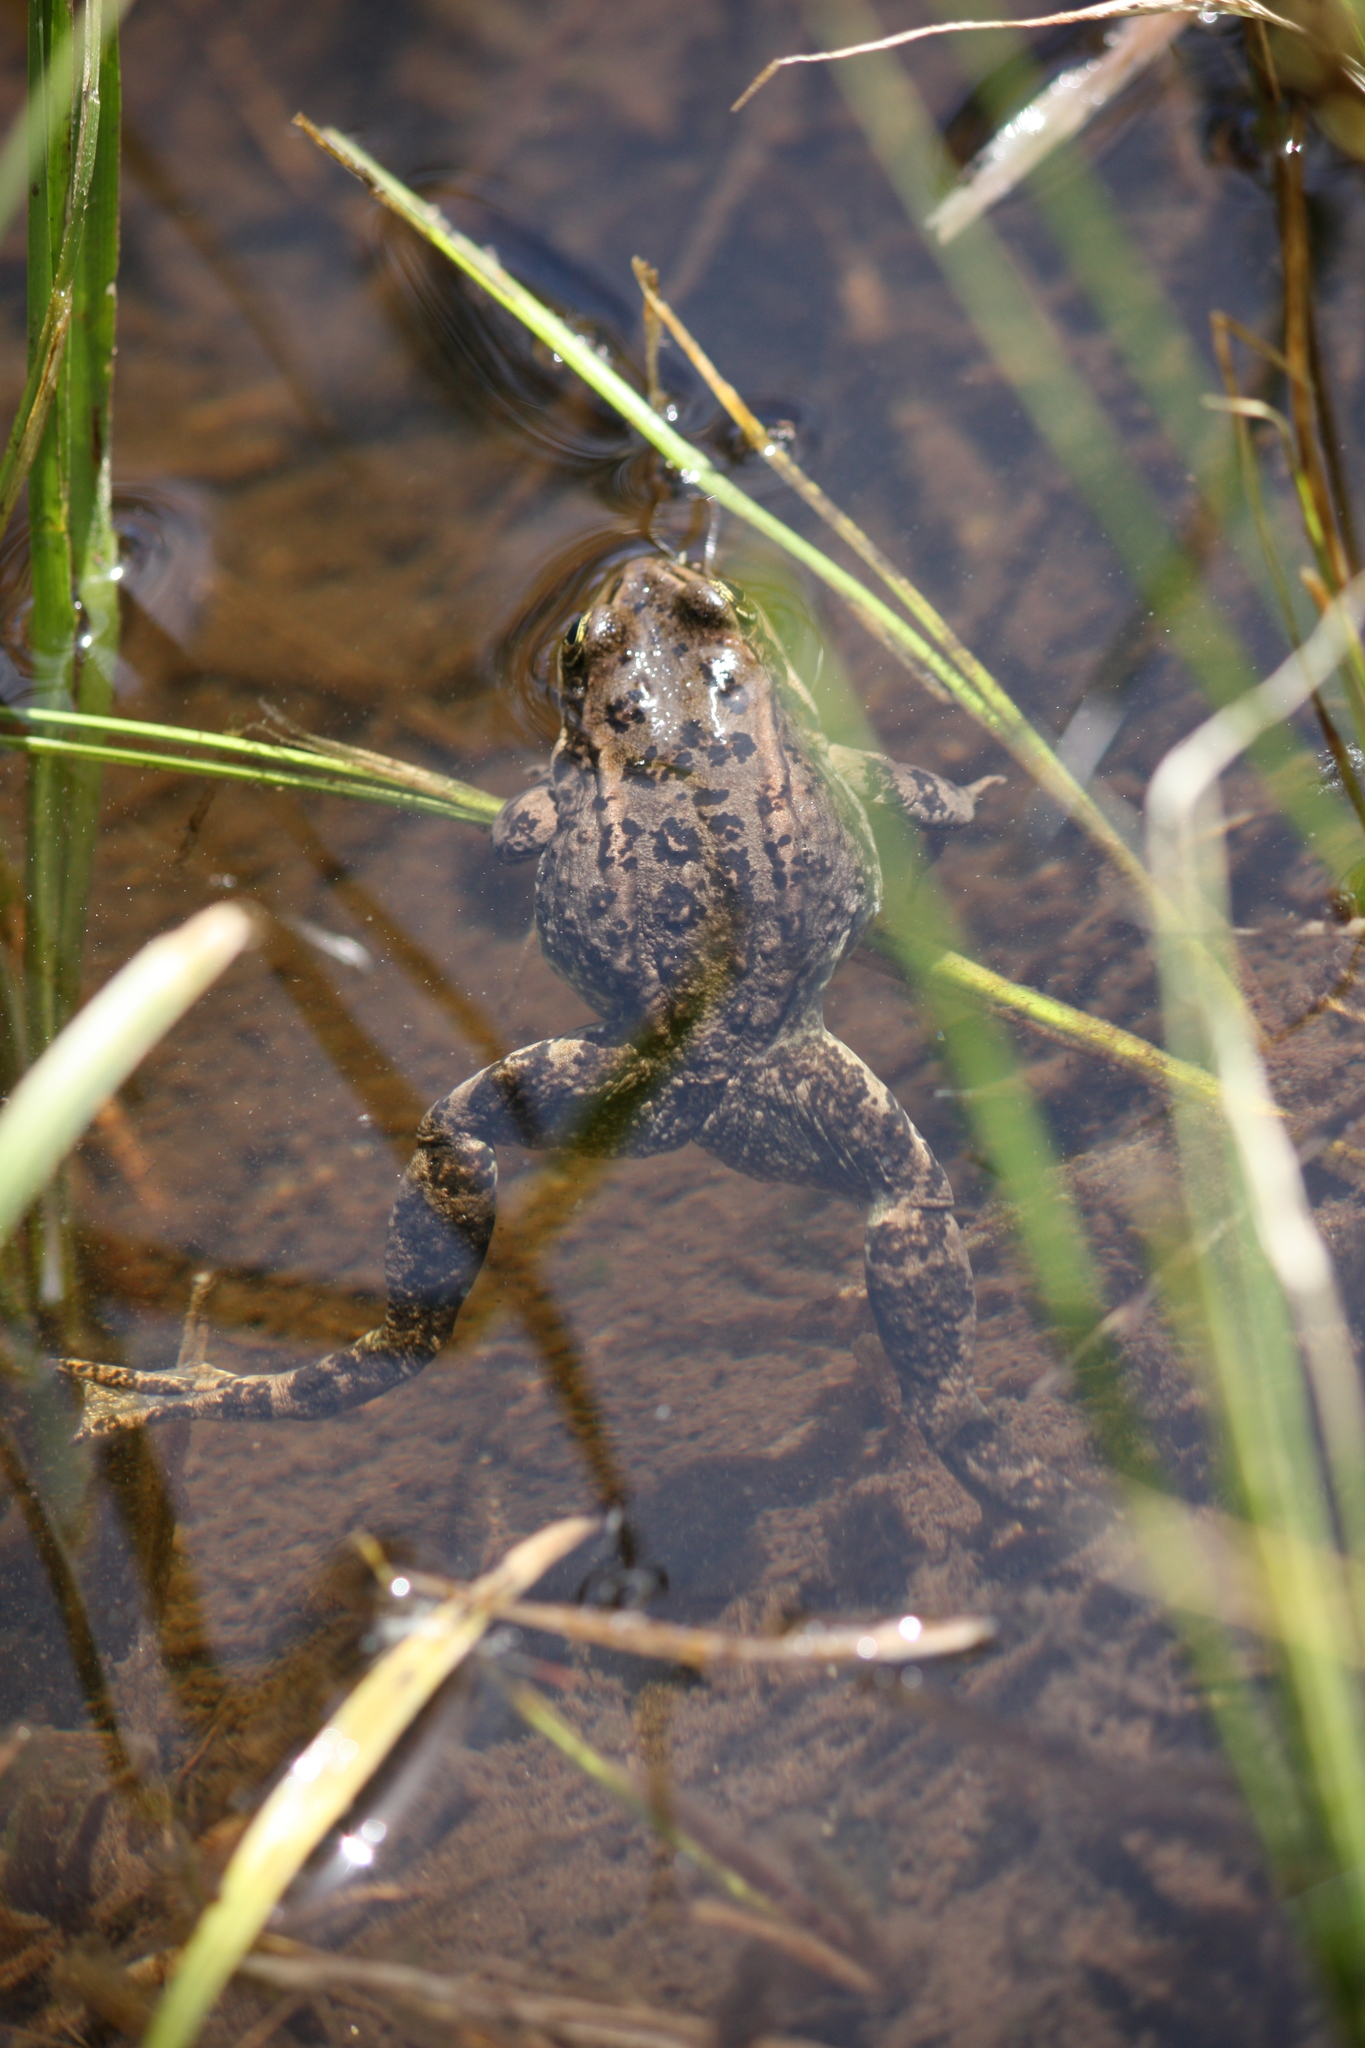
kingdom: Animalia
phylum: Chordata
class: Amphibia
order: Anura
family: Ranidae
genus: Rana
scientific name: Rana luteiventris
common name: Columbia spotted frog
